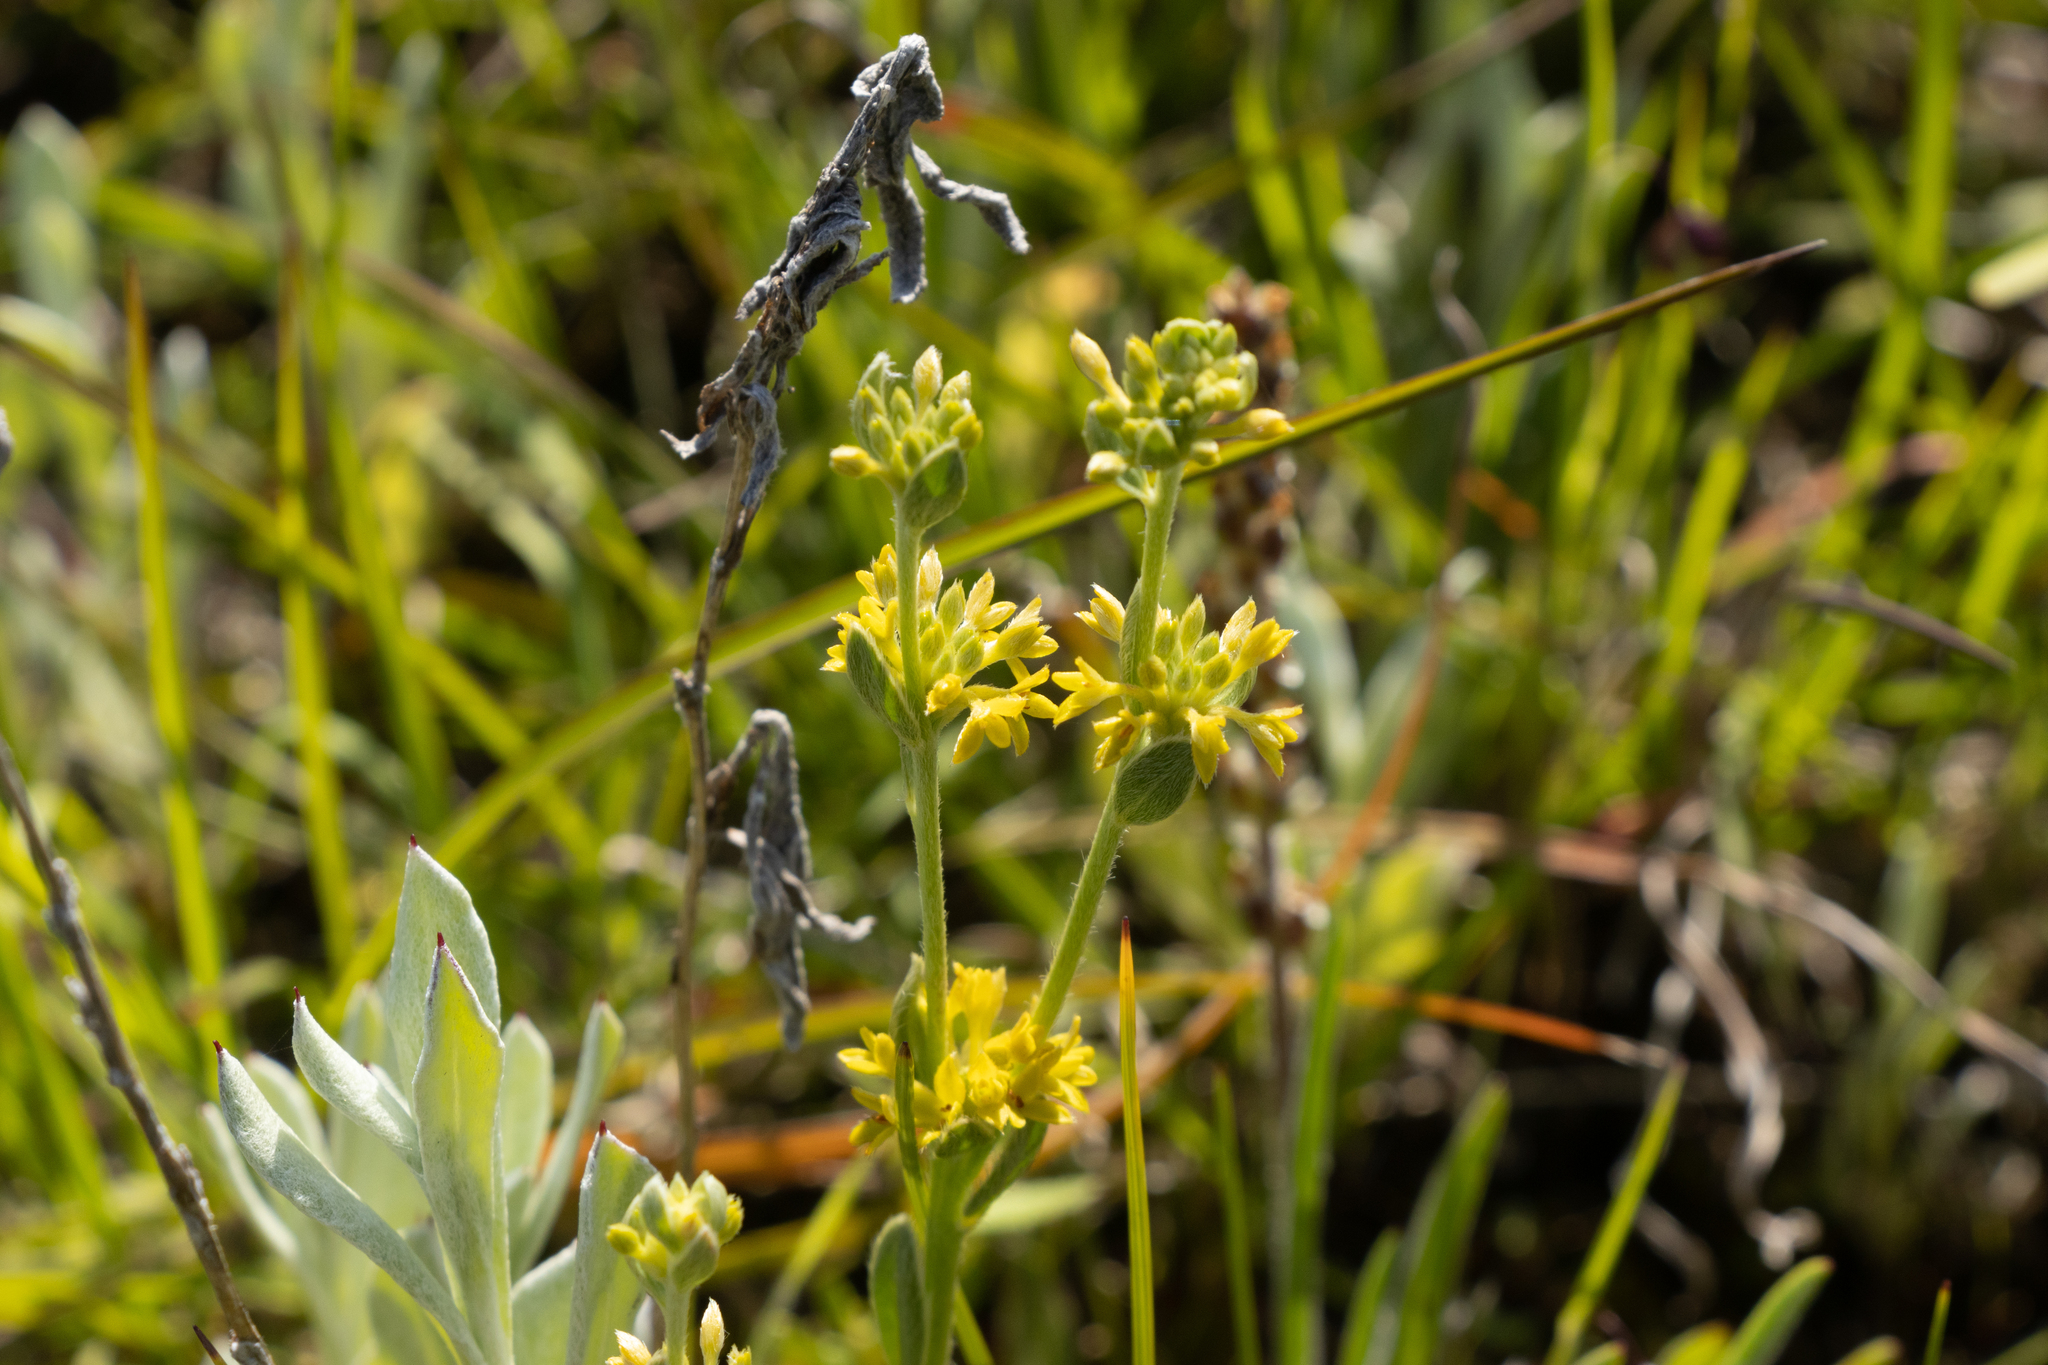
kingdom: Plantae
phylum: Tracheophyta
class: Magnoliopsida
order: Malvales
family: Thymelaeaceae
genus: Pimelea
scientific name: Pimelea curviflora
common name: Curved riceflower
